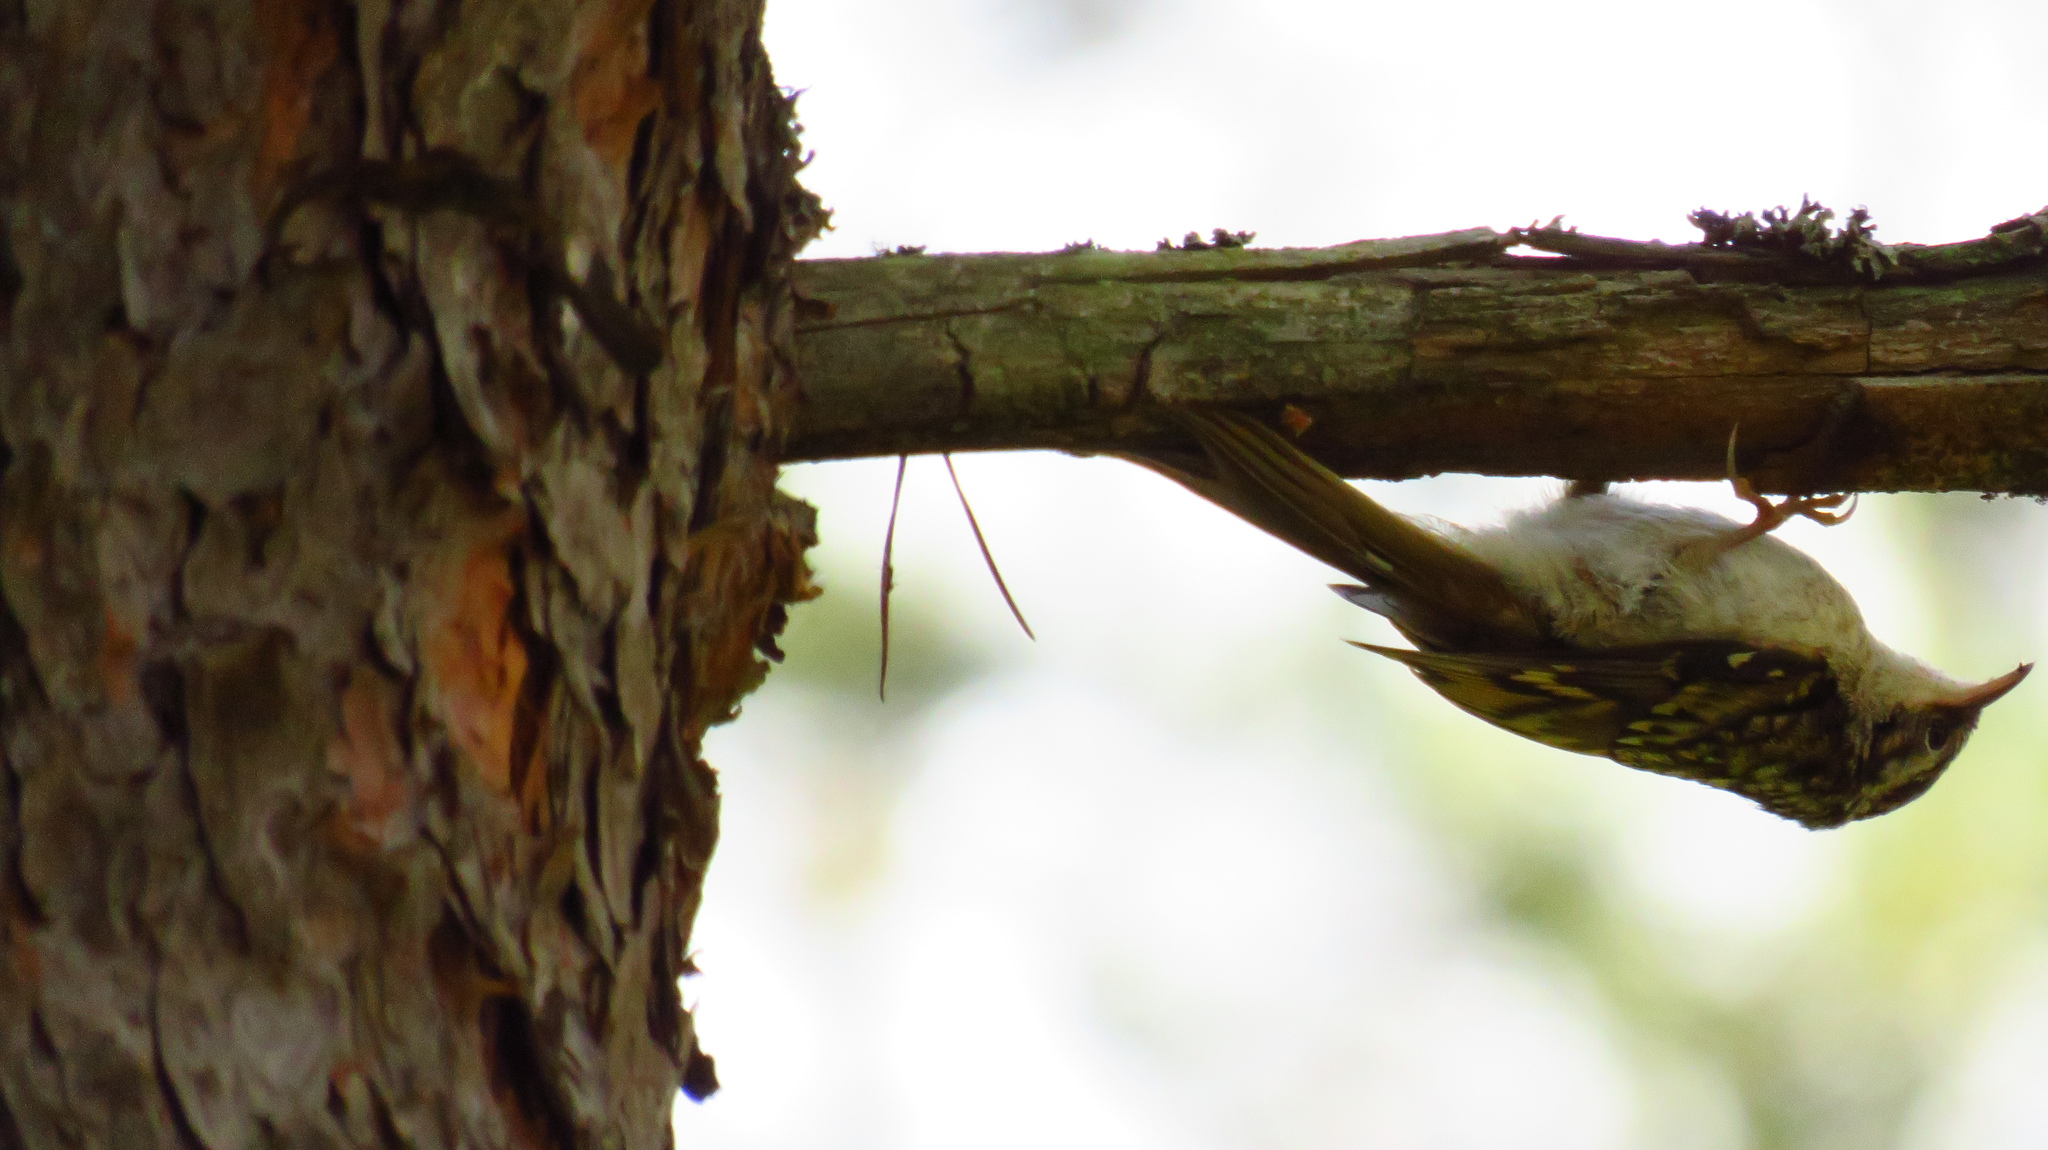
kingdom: Animalia
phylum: Chordata
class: Aves
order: Passeriformes
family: Certhiidae
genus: Certhia
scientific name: Certhia familiaris
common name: Eurasian treecreeper
